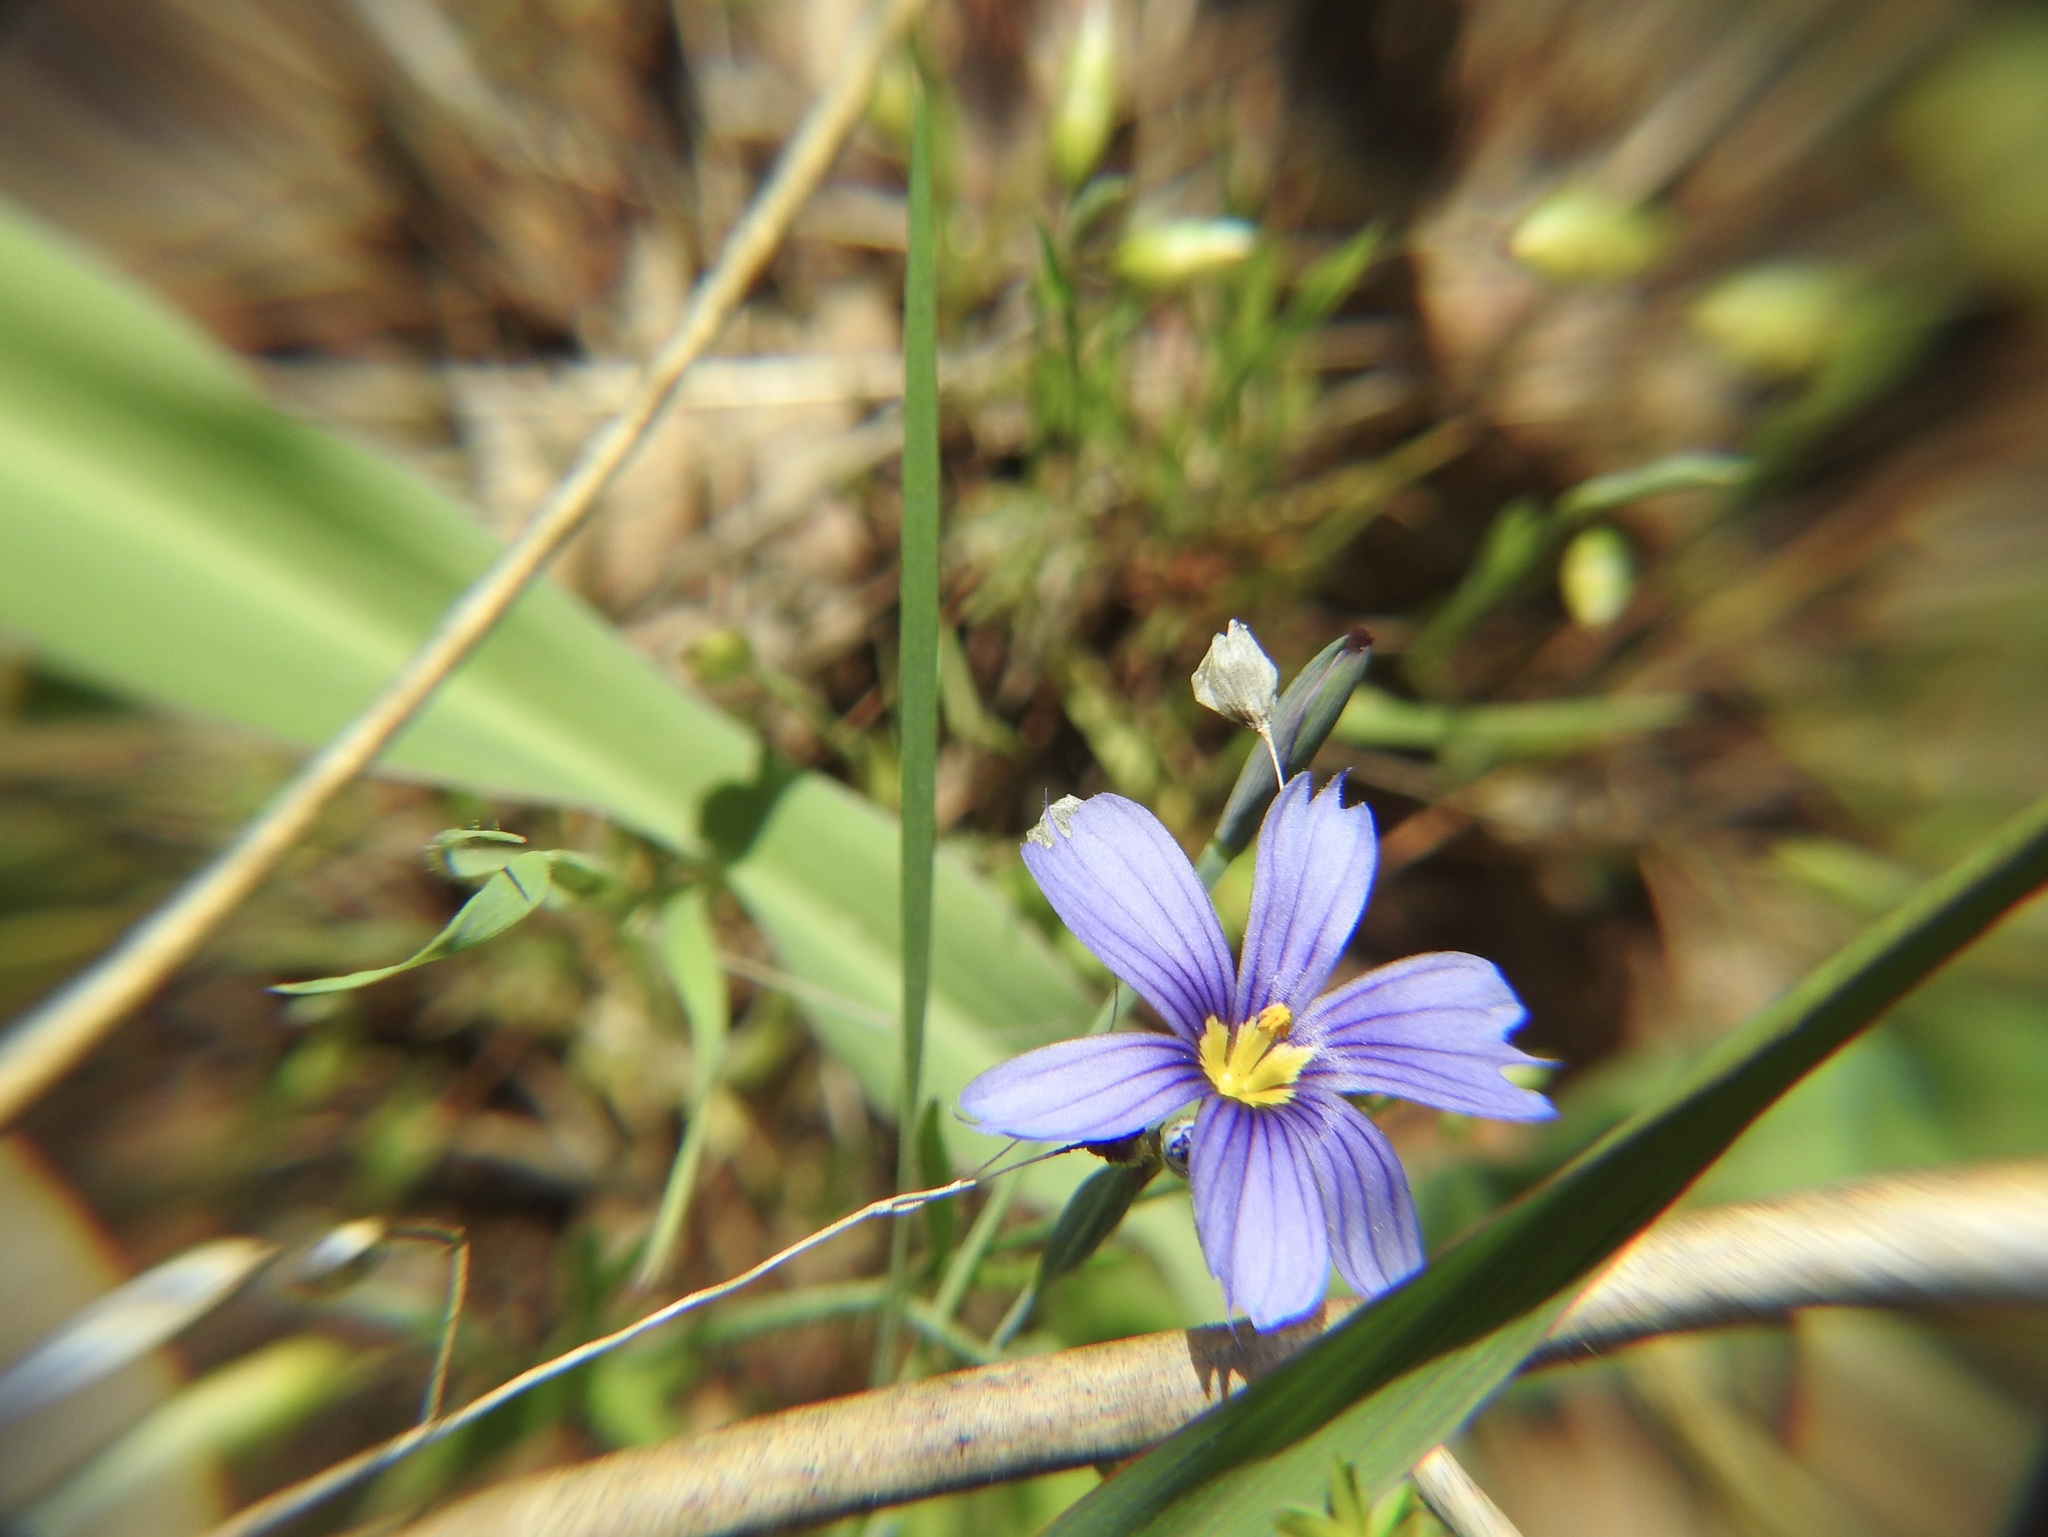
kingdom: Plantae
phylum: Tracheophyta
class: Liliopsida
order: Asparagales
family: Iridaceae
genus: Sisyrinchium
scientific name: Sisyrinchium bellum
